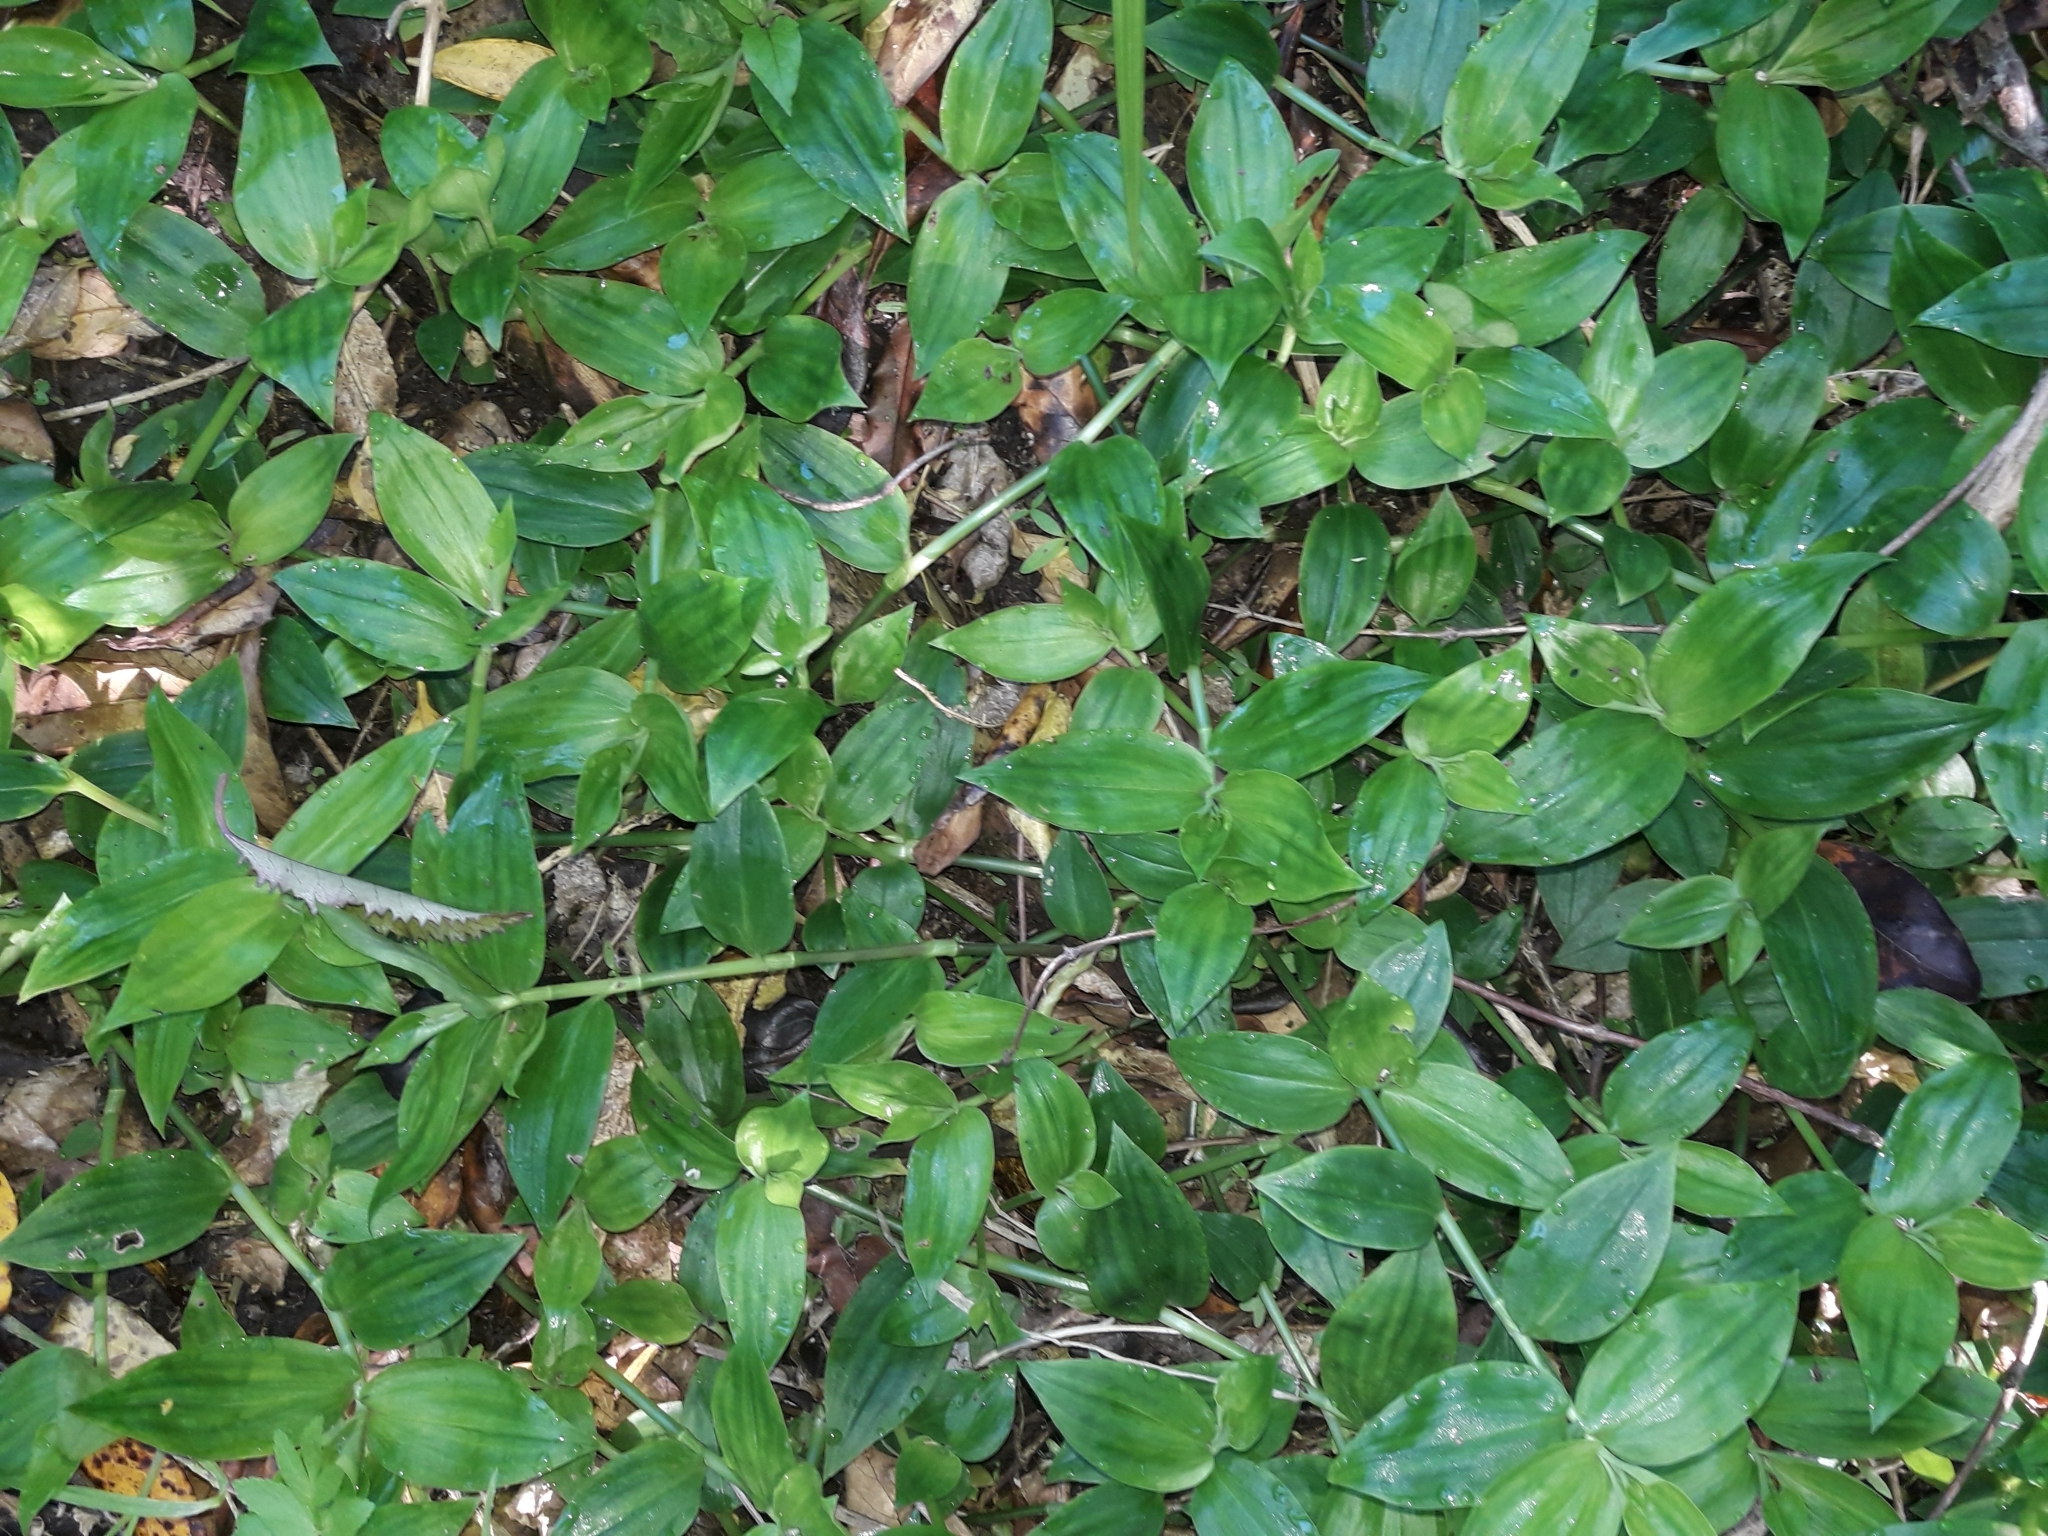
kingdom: Plantae
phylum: Tracheophyta
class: Liliopsida
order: Commelinales
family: Commelinaceae
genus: Tradescantia
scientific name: Tradescantia fluminensis
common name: Wandering-jew
